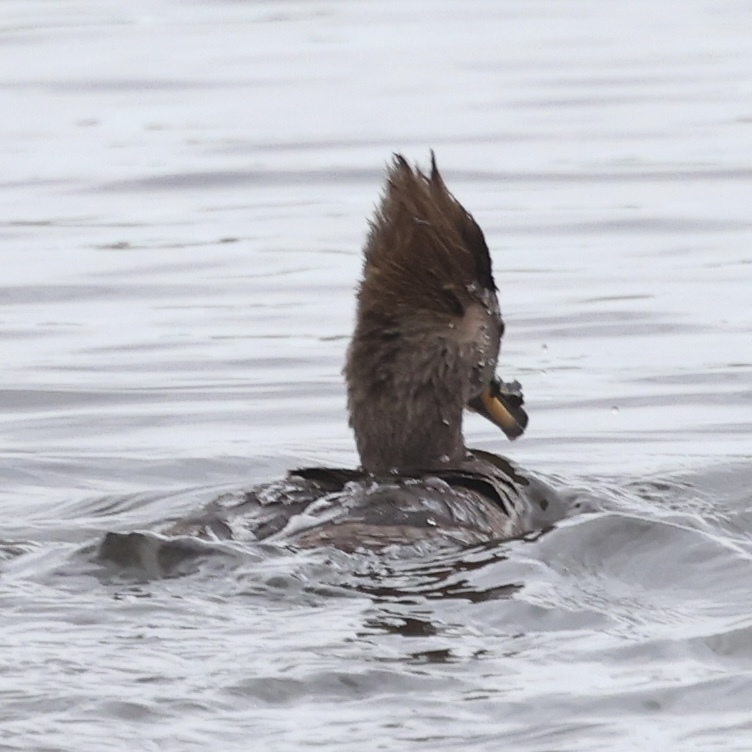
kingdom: Animalia
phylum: Chordata
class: Aves
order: Anseriformes
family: Anatidae
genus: Lophodytes
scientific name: Lophodytes cucullatus
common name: Hooded merganser
